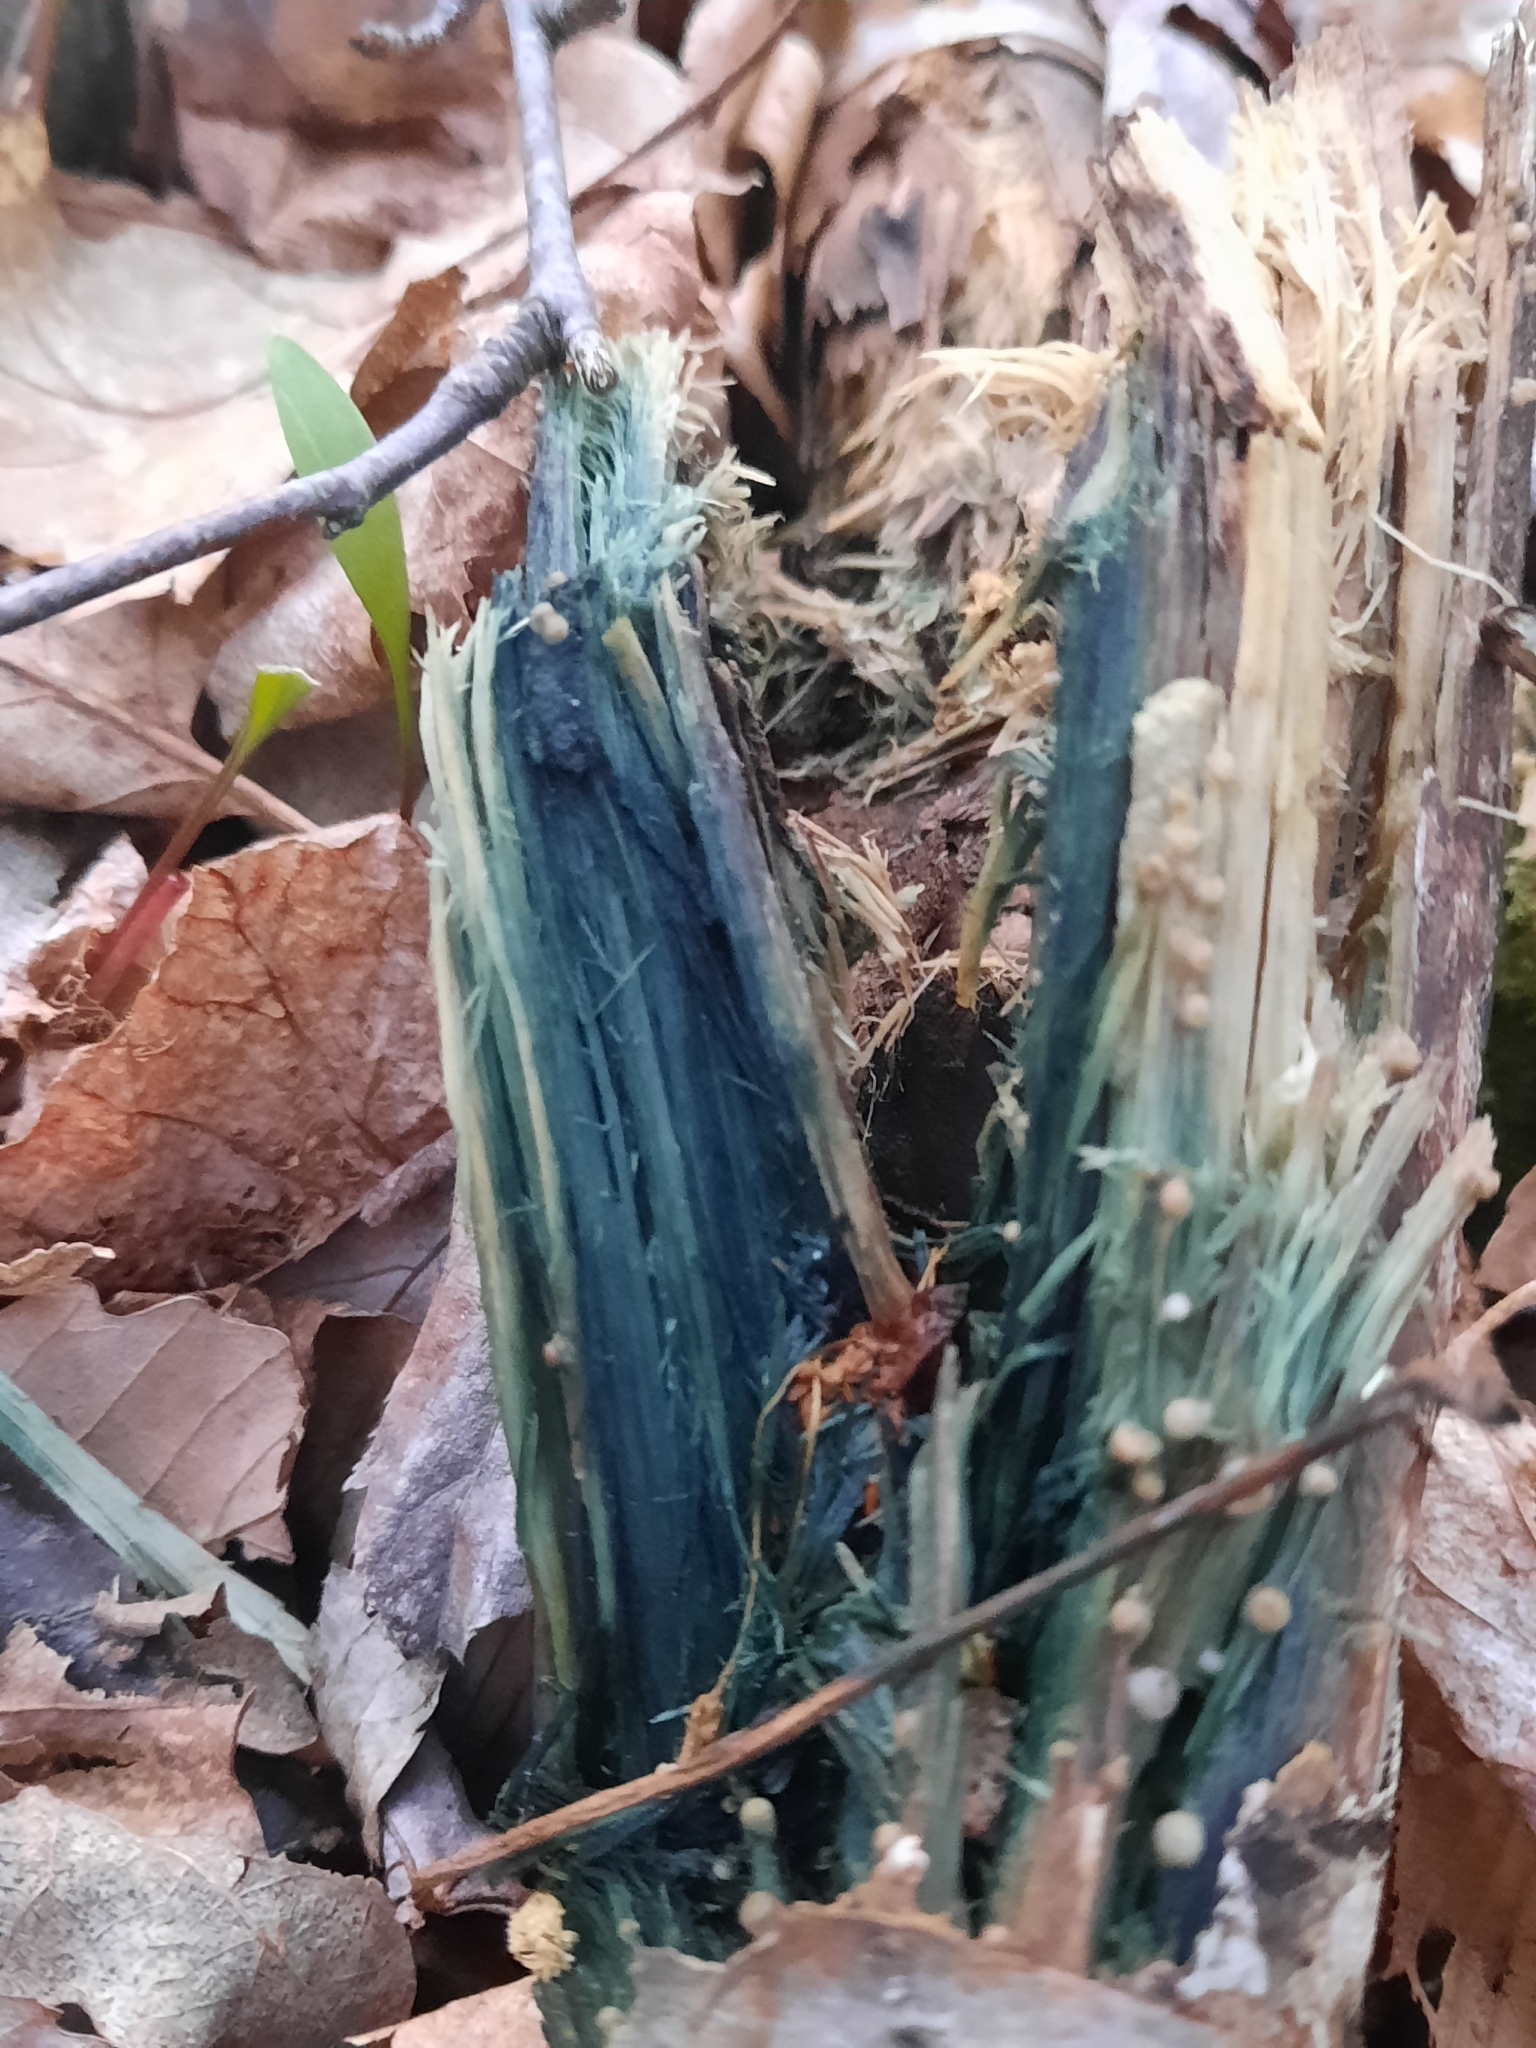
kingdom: Fungi
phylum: Ascomycota
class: Leotiomycetes
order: Helotiales
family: Chlorociboriaceae
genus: Chlorociboria
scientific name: Chlorociboria
